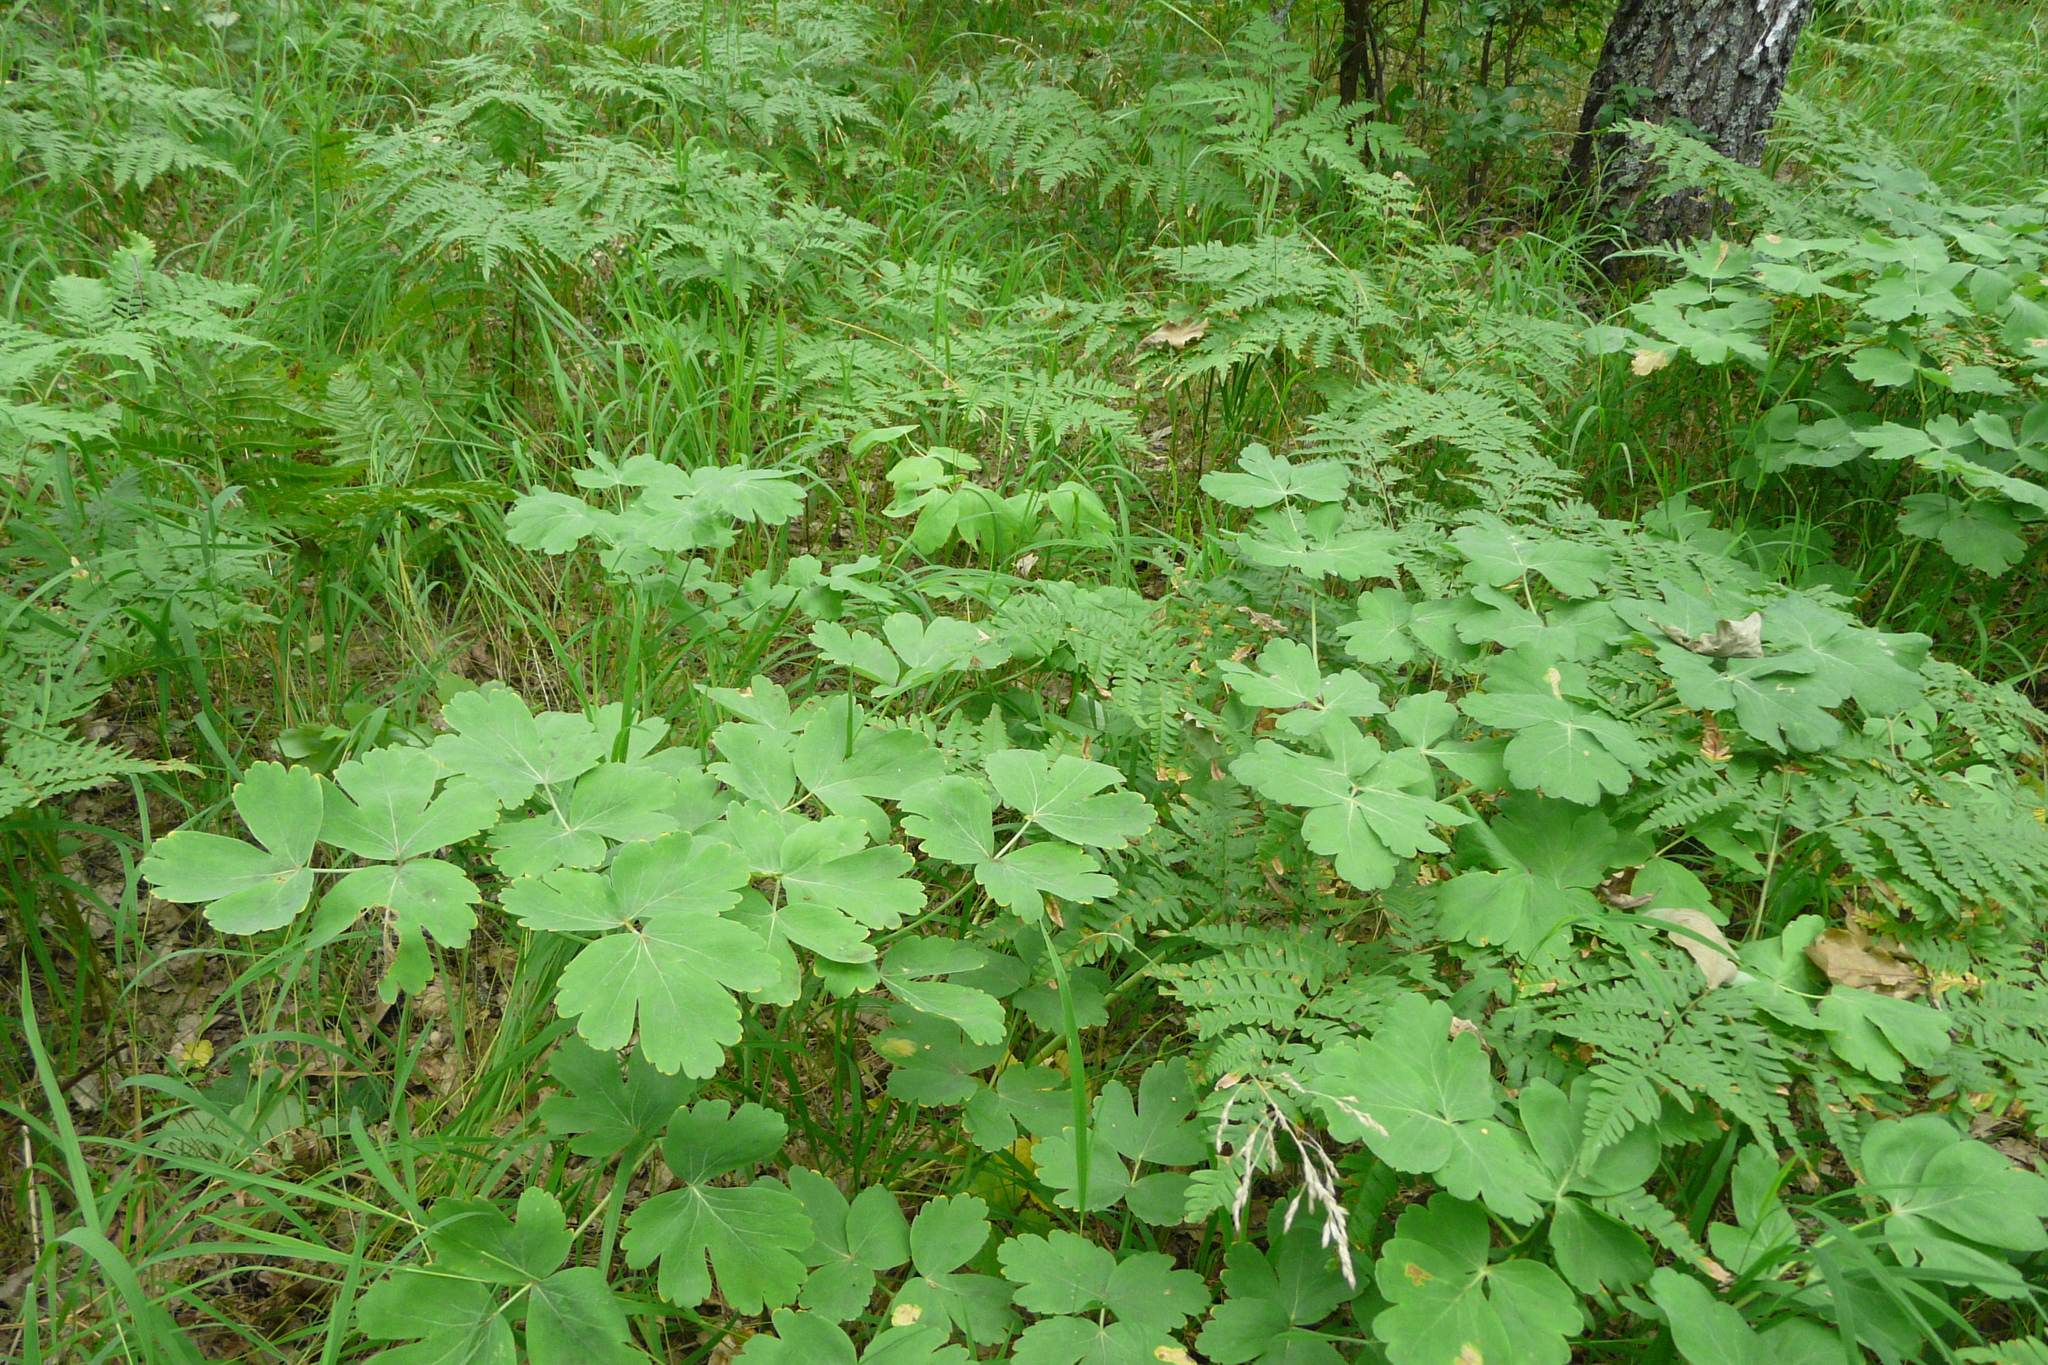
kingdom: Plantae
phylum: Tracheophyta
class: Magnoliopsida
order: Apiales
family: Apiaceae
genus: Laser
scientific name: Laser trilobum
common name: Laser
